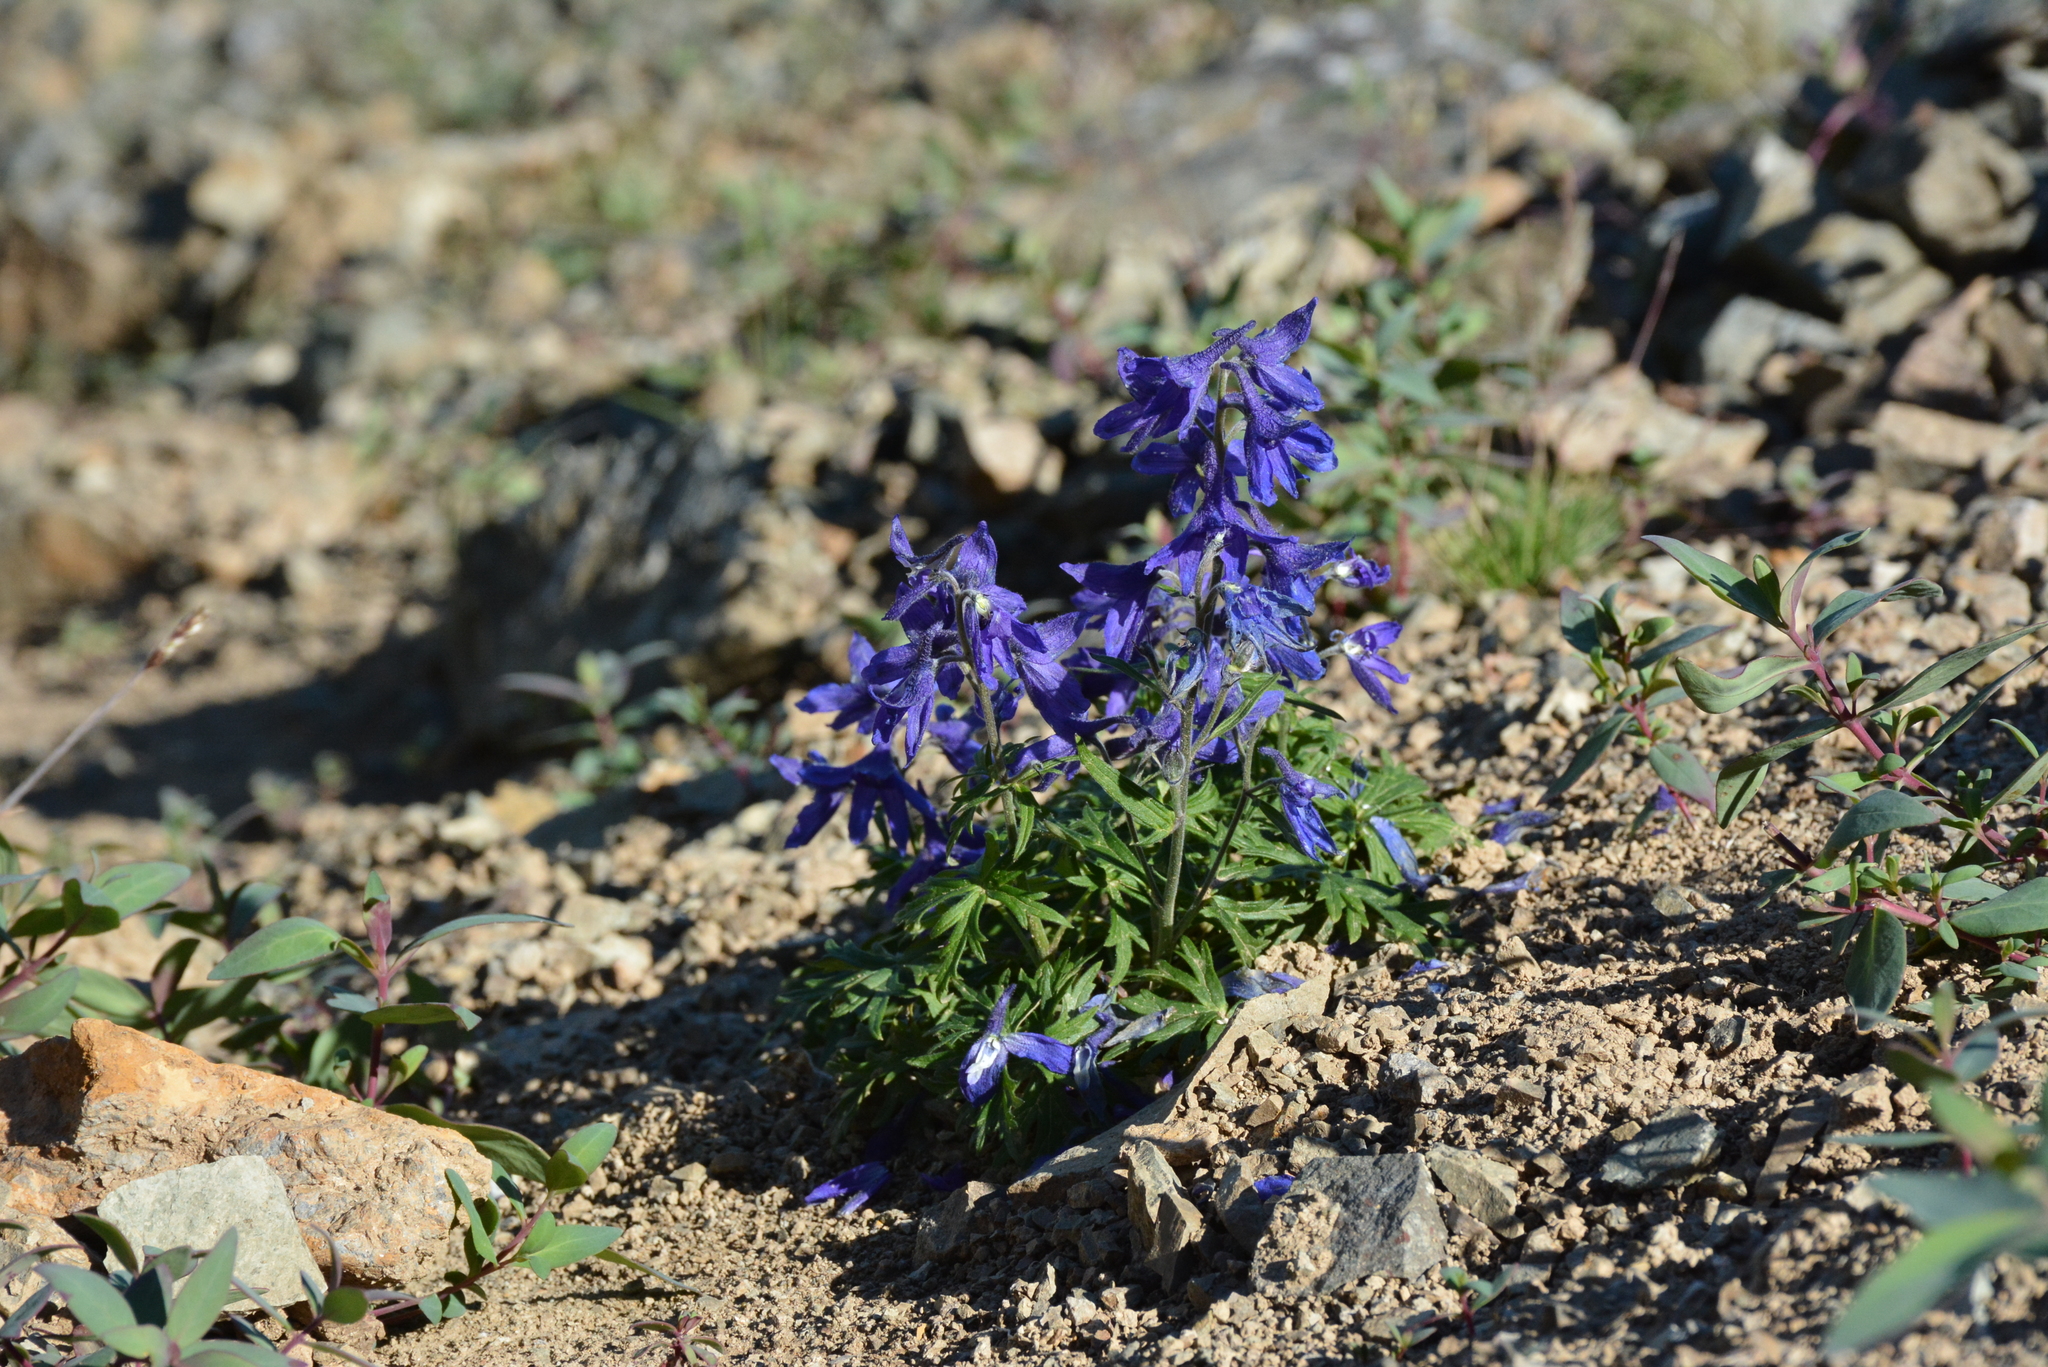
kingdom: Plantae
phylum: Tracheophyta
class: Magnoliopsida
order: Ranunculales
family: Ranunculaceae
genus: Delphinium
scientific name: Delphinium chamissonis
